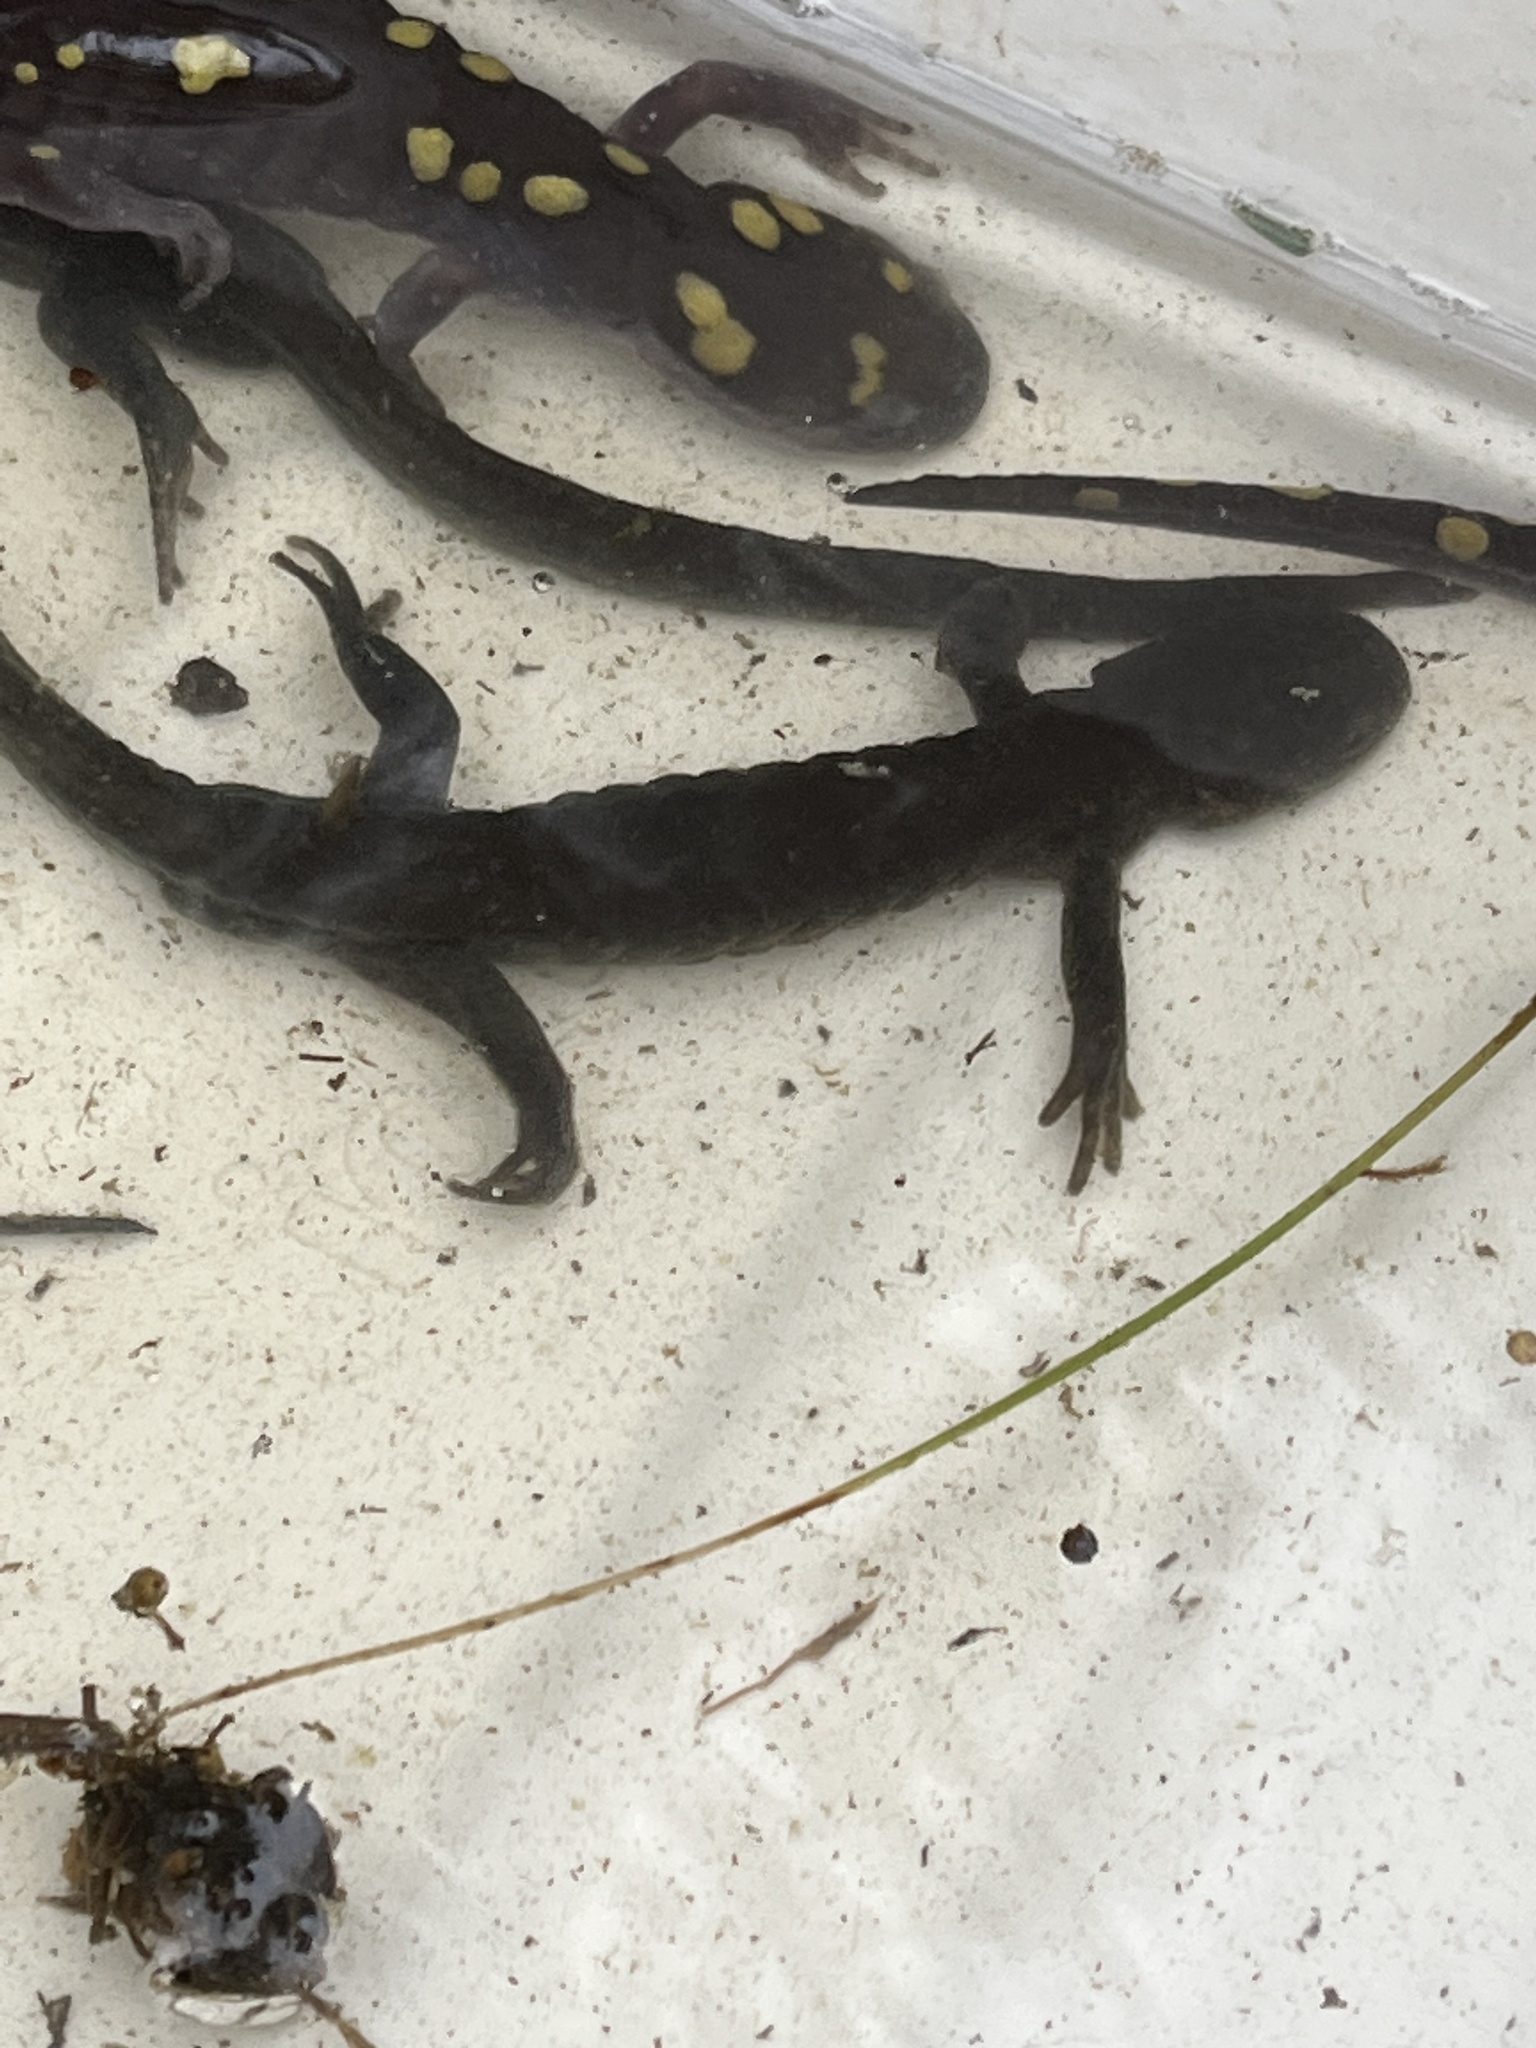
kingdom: Animalia
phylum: Chordata
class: Amphibia
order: Caudata
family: Ambystomatidae
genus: Ambystoma
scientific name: Ambystoma jeffersonianum
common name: Jefferson salamander
